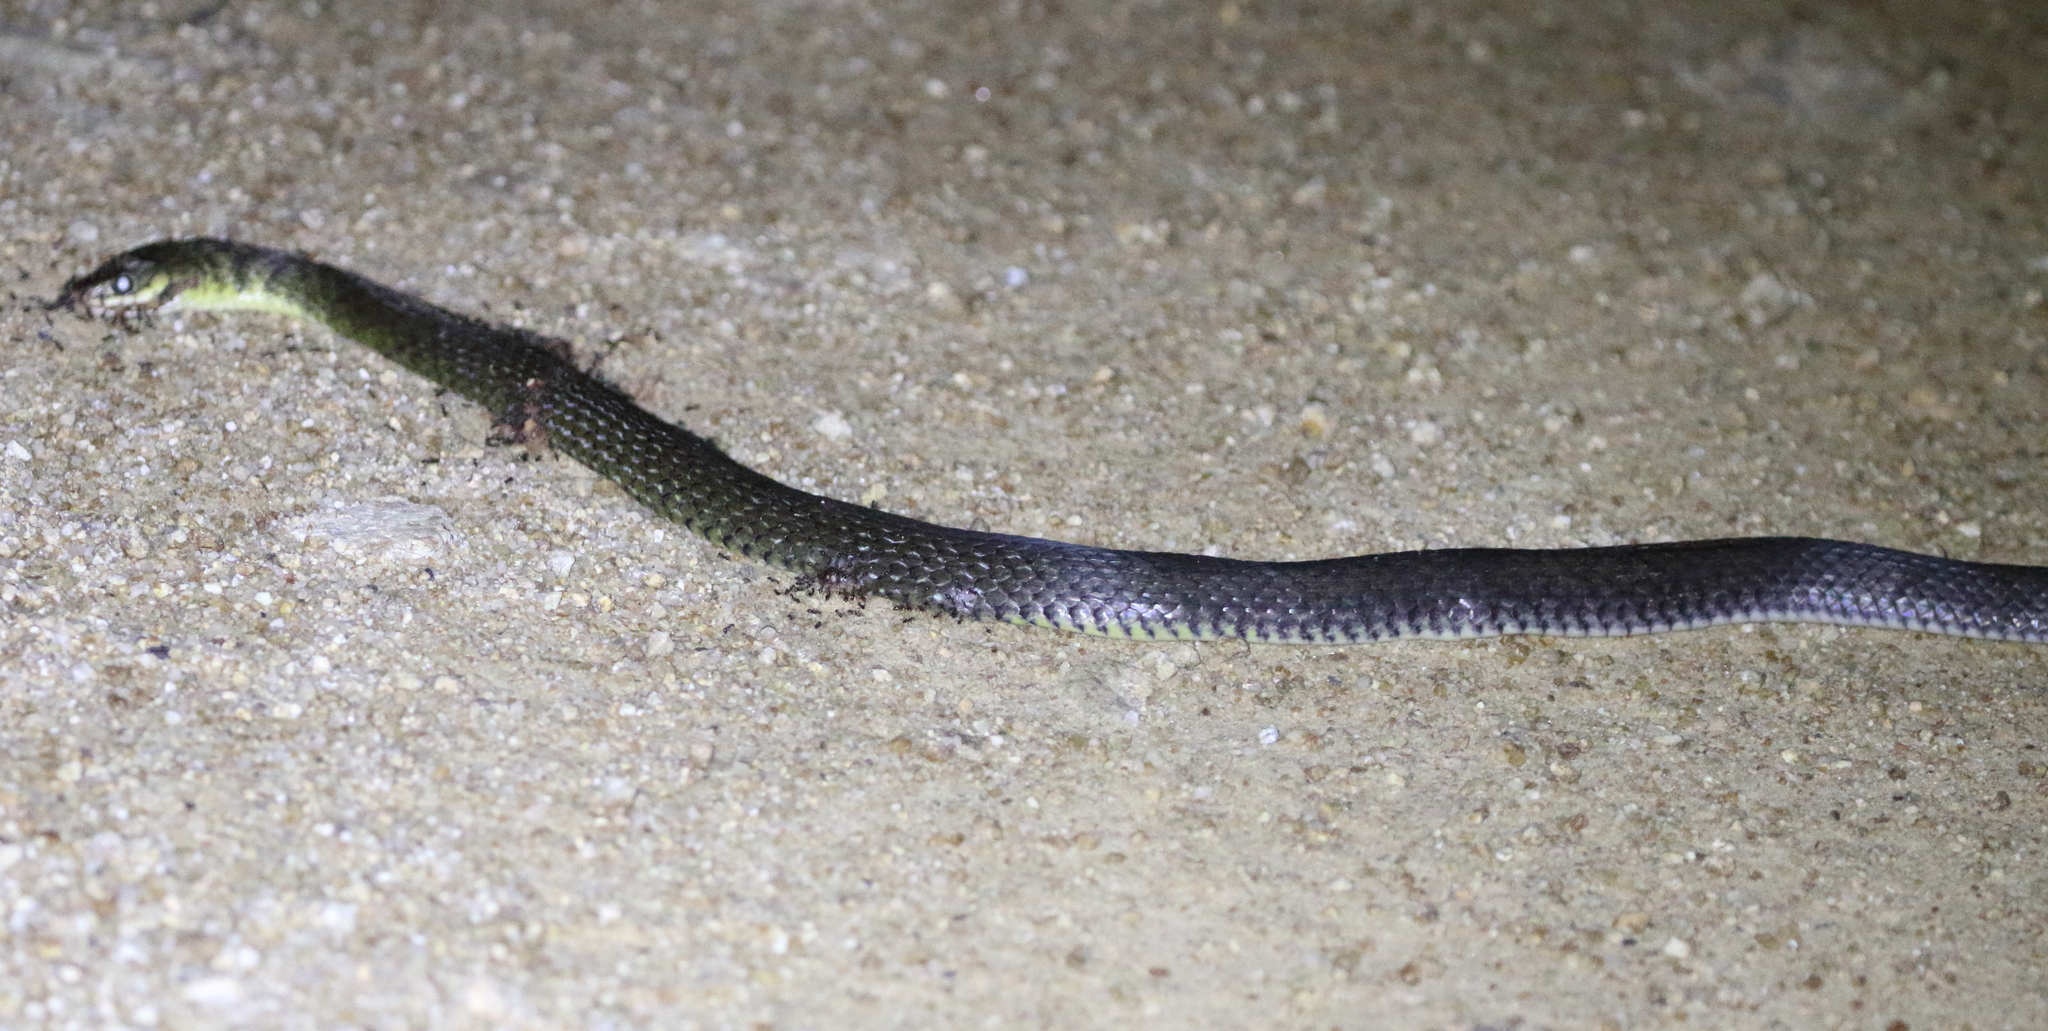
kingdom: Animalia
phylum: Chordata
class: Squamata
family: Colubridae
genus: Tropidonophis
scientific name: Tropidonophis mairii
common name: Common keelback
